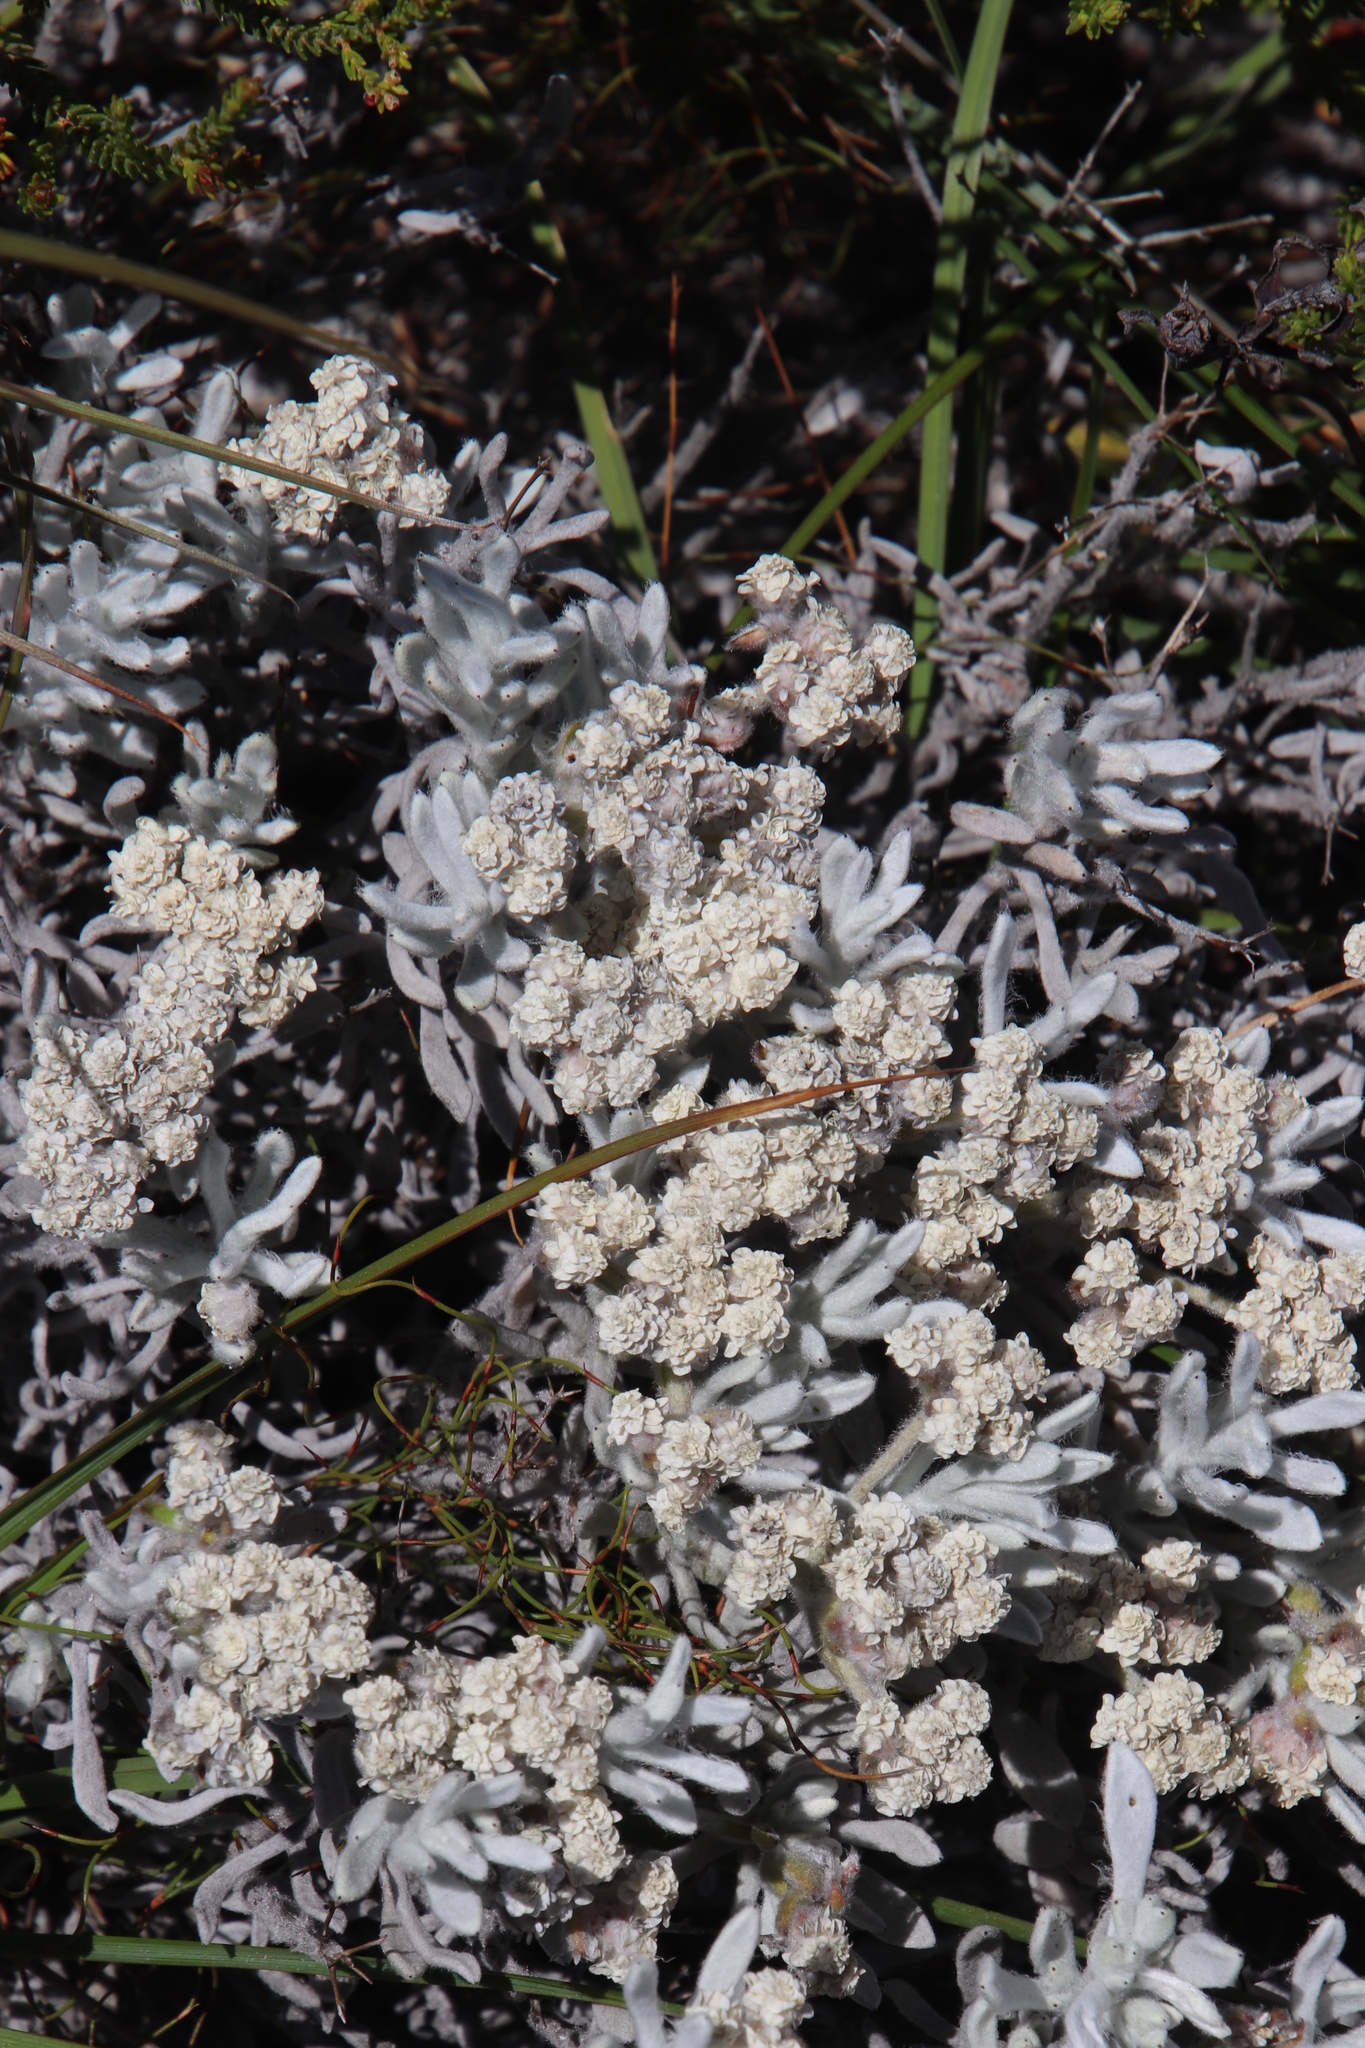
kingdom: Plantae
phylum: Tracheophyta
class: Magnoliopsida
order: Asterales
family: Asteraceae
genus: Petalacte
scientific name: Petalacte coronata
